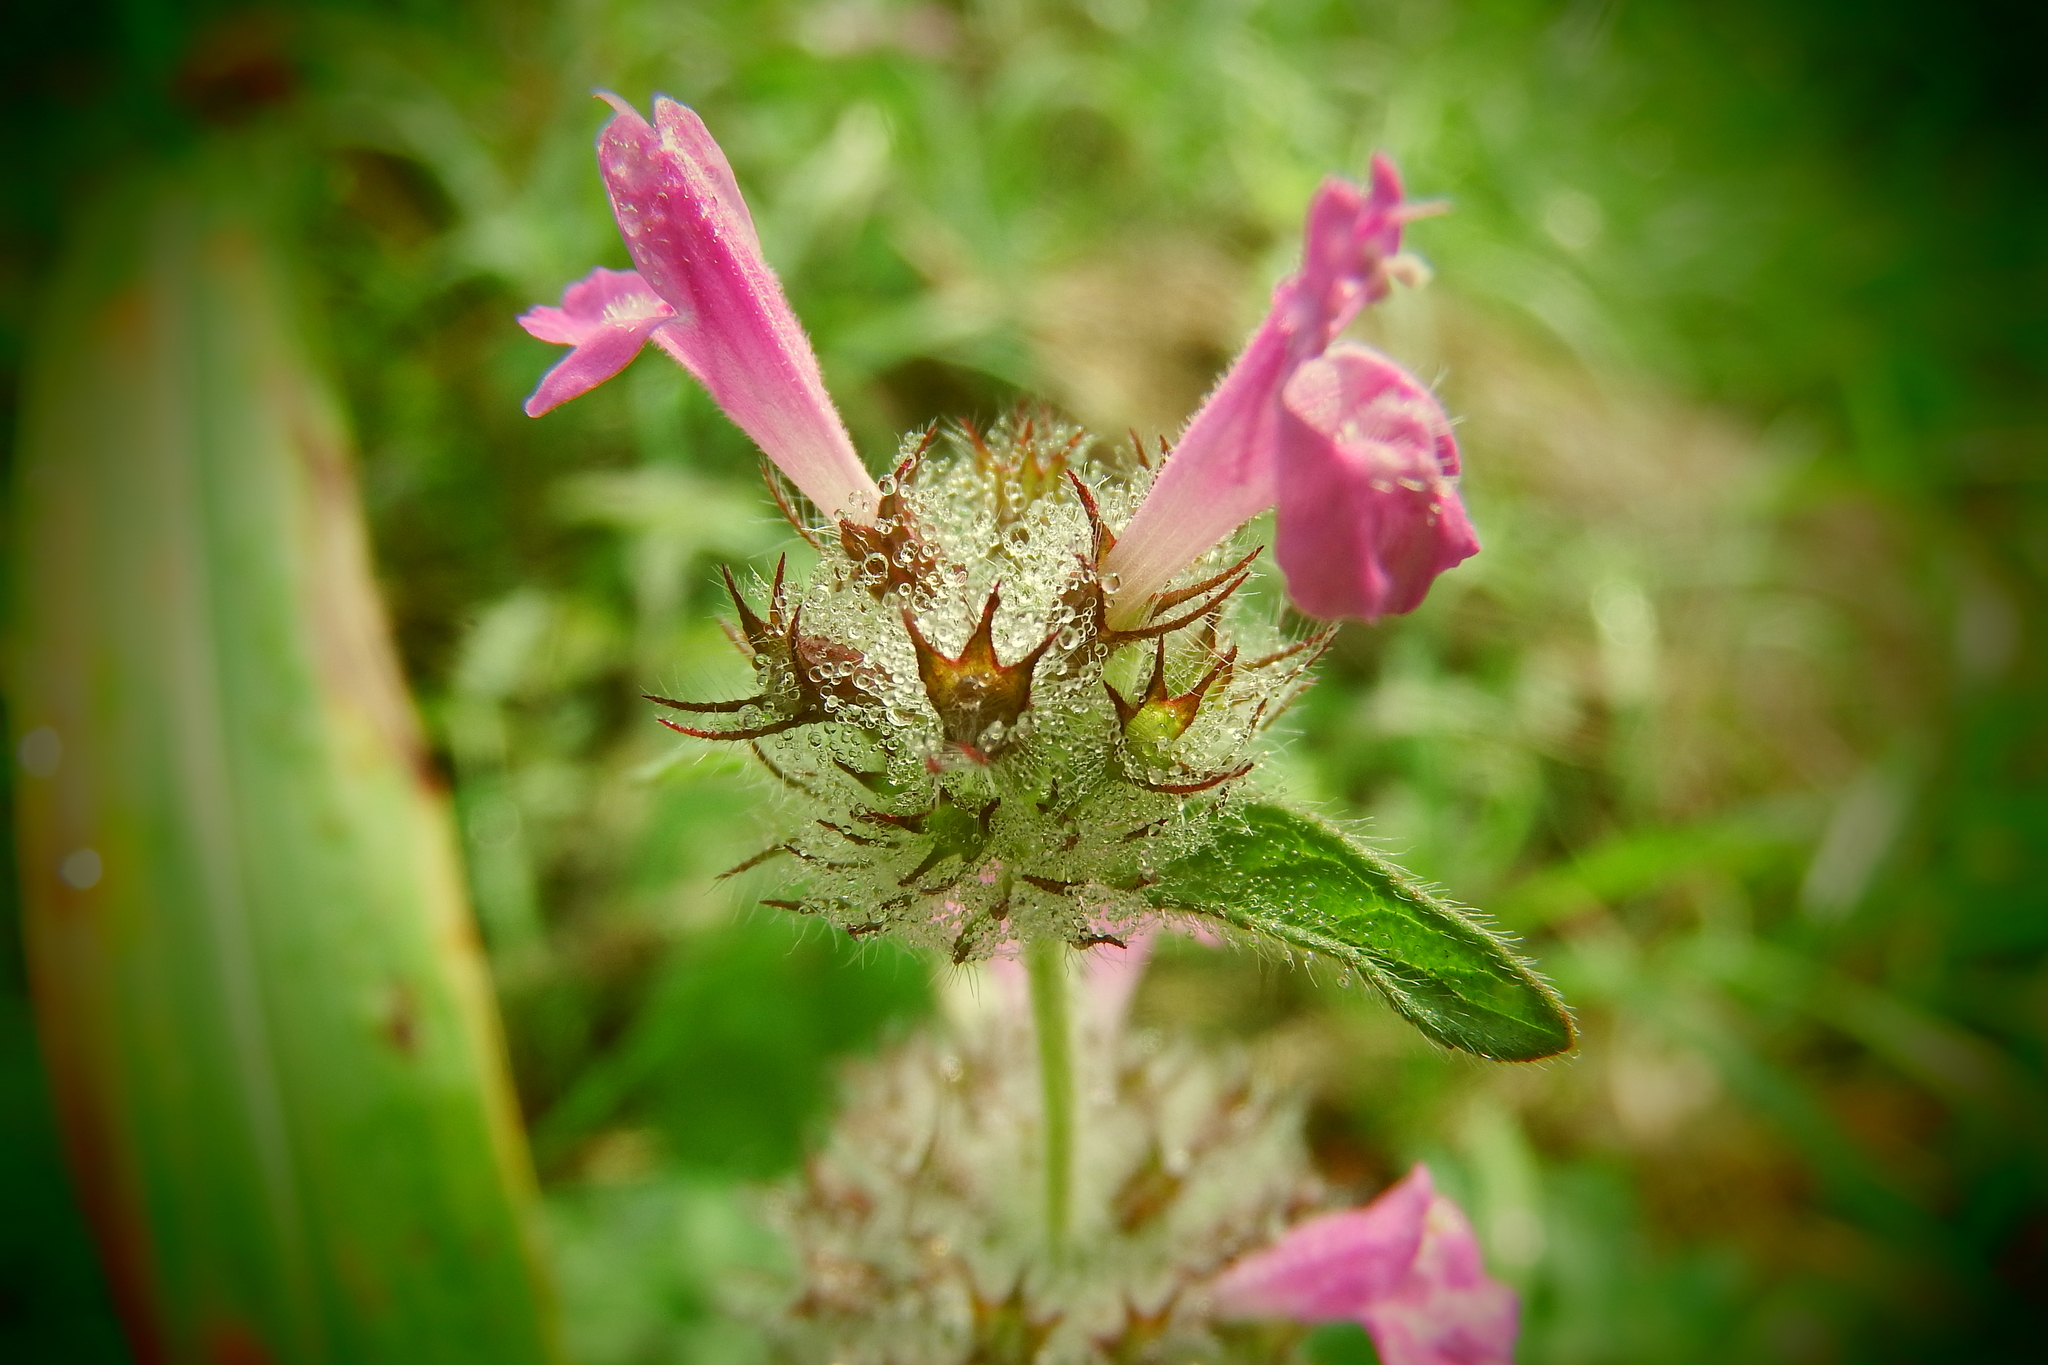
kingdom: Plantae
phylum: Tracheophyta
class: Magnoliopsida
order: Lamiales
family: Lamiaceae
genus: Clinopodium
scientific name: Clinopodium vulgare
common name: Wild basil
